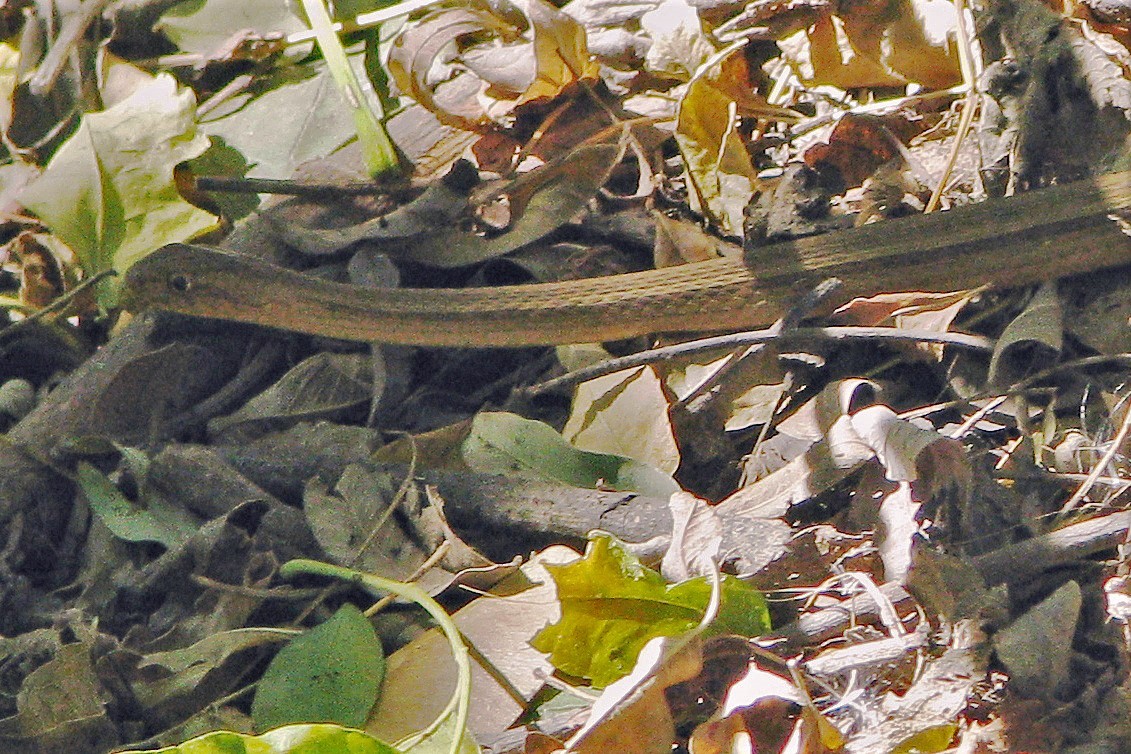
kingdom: Animalia
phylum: Chordata
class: Squamata
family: Colubridae
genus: Dryophylax
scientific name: Dryophylax
